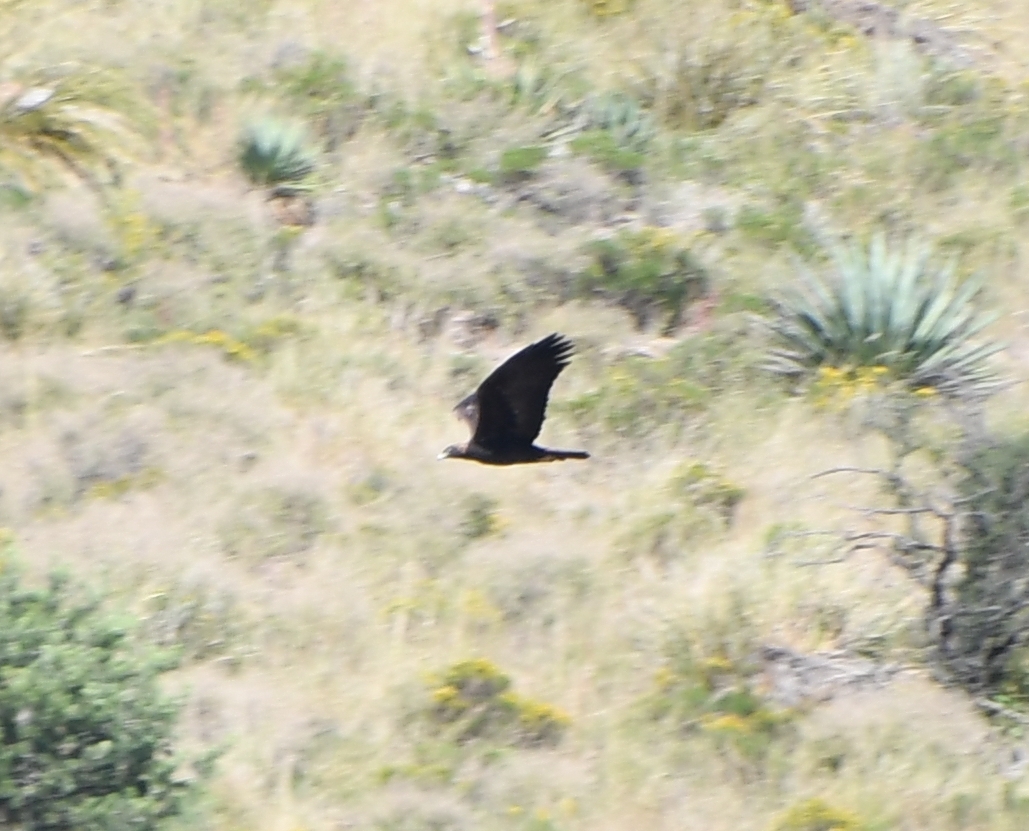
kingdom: Animalia
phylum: Chordata
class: Aves
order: Accipitriformes
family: Accipitridae
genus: Aquila
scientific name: Aquila chrysaetos
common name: Golden eagle
